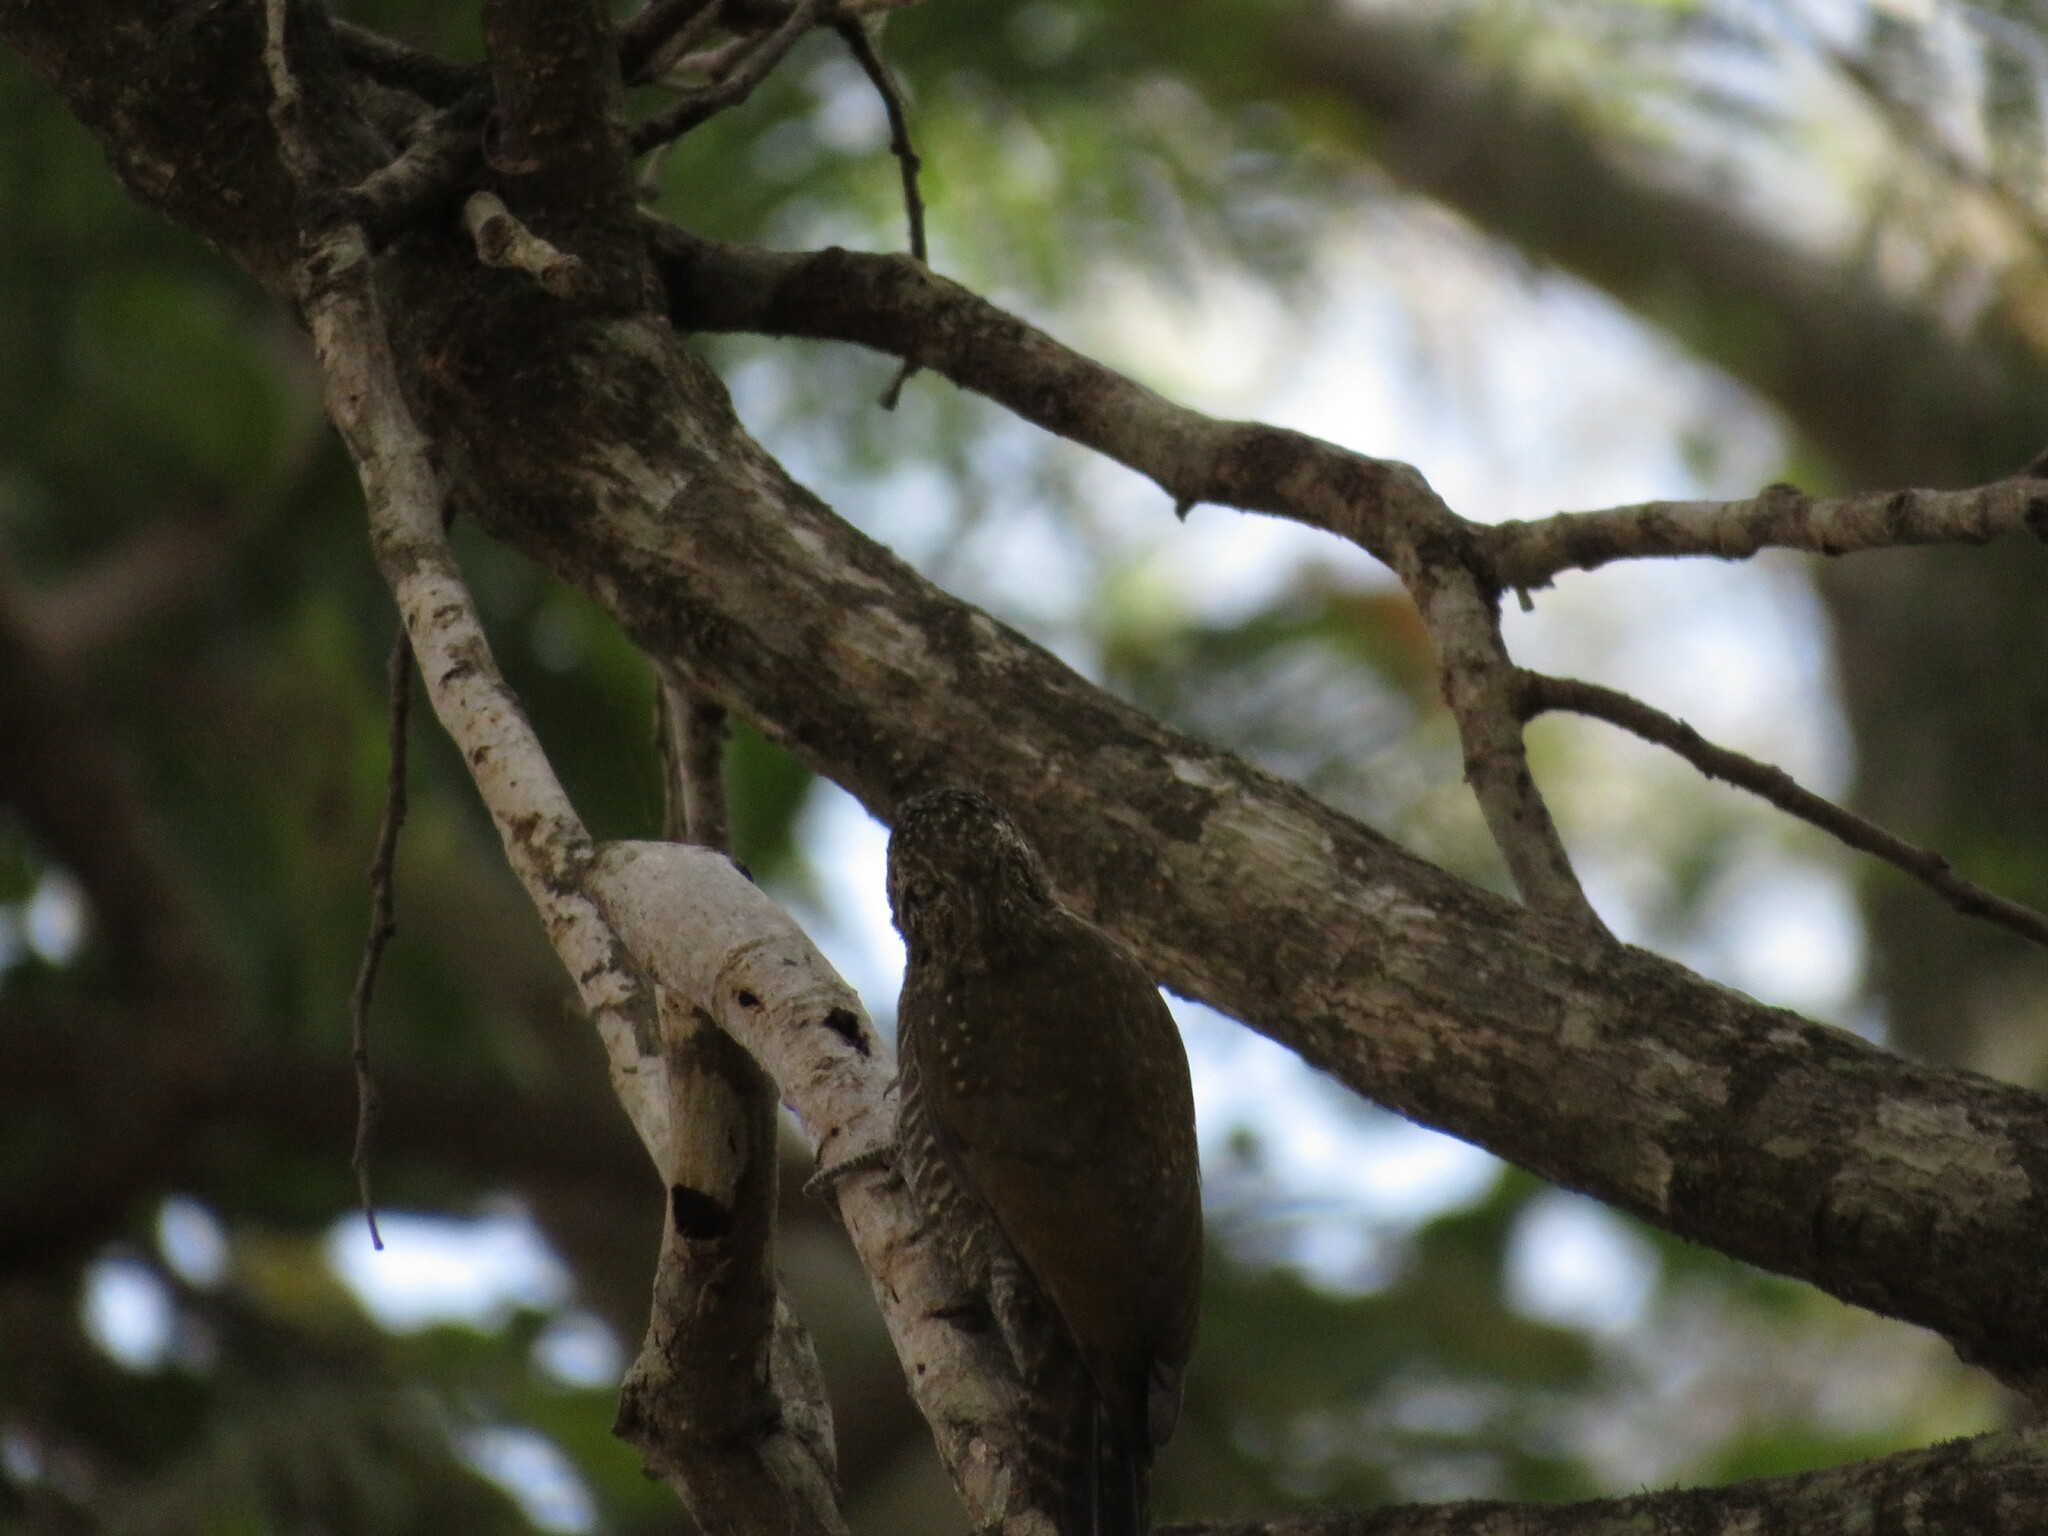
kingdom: Animalia
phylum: Chordata
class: Aves
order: Piciformes
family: Picidae
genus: Veniliornis
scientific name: Veniliornis frontalis
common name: Dot-fronted woodpecker
